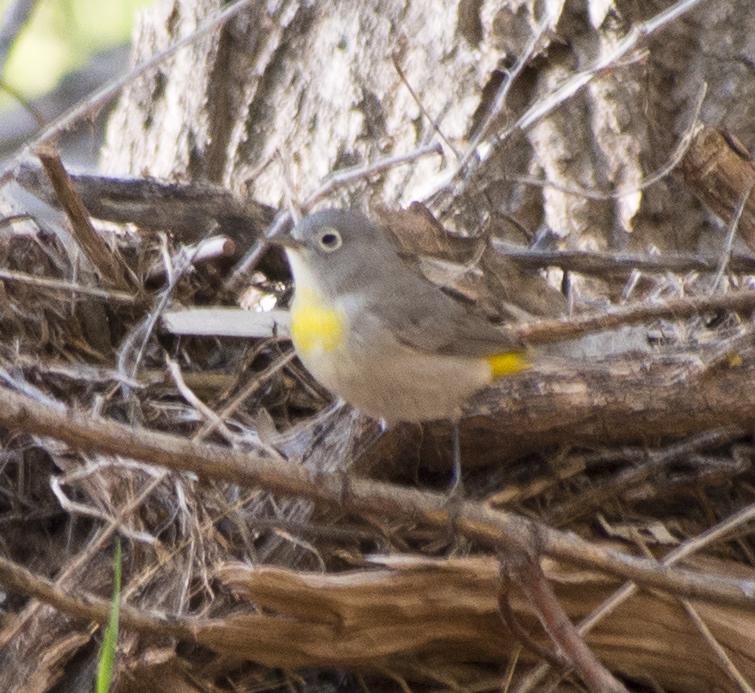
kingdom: Animalia
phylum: Chordata
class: Aves
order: Passeriformes
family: Parulidae
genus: Leiothlypis
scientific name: Leiothlypis virginiae
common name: Virginia's warbler
